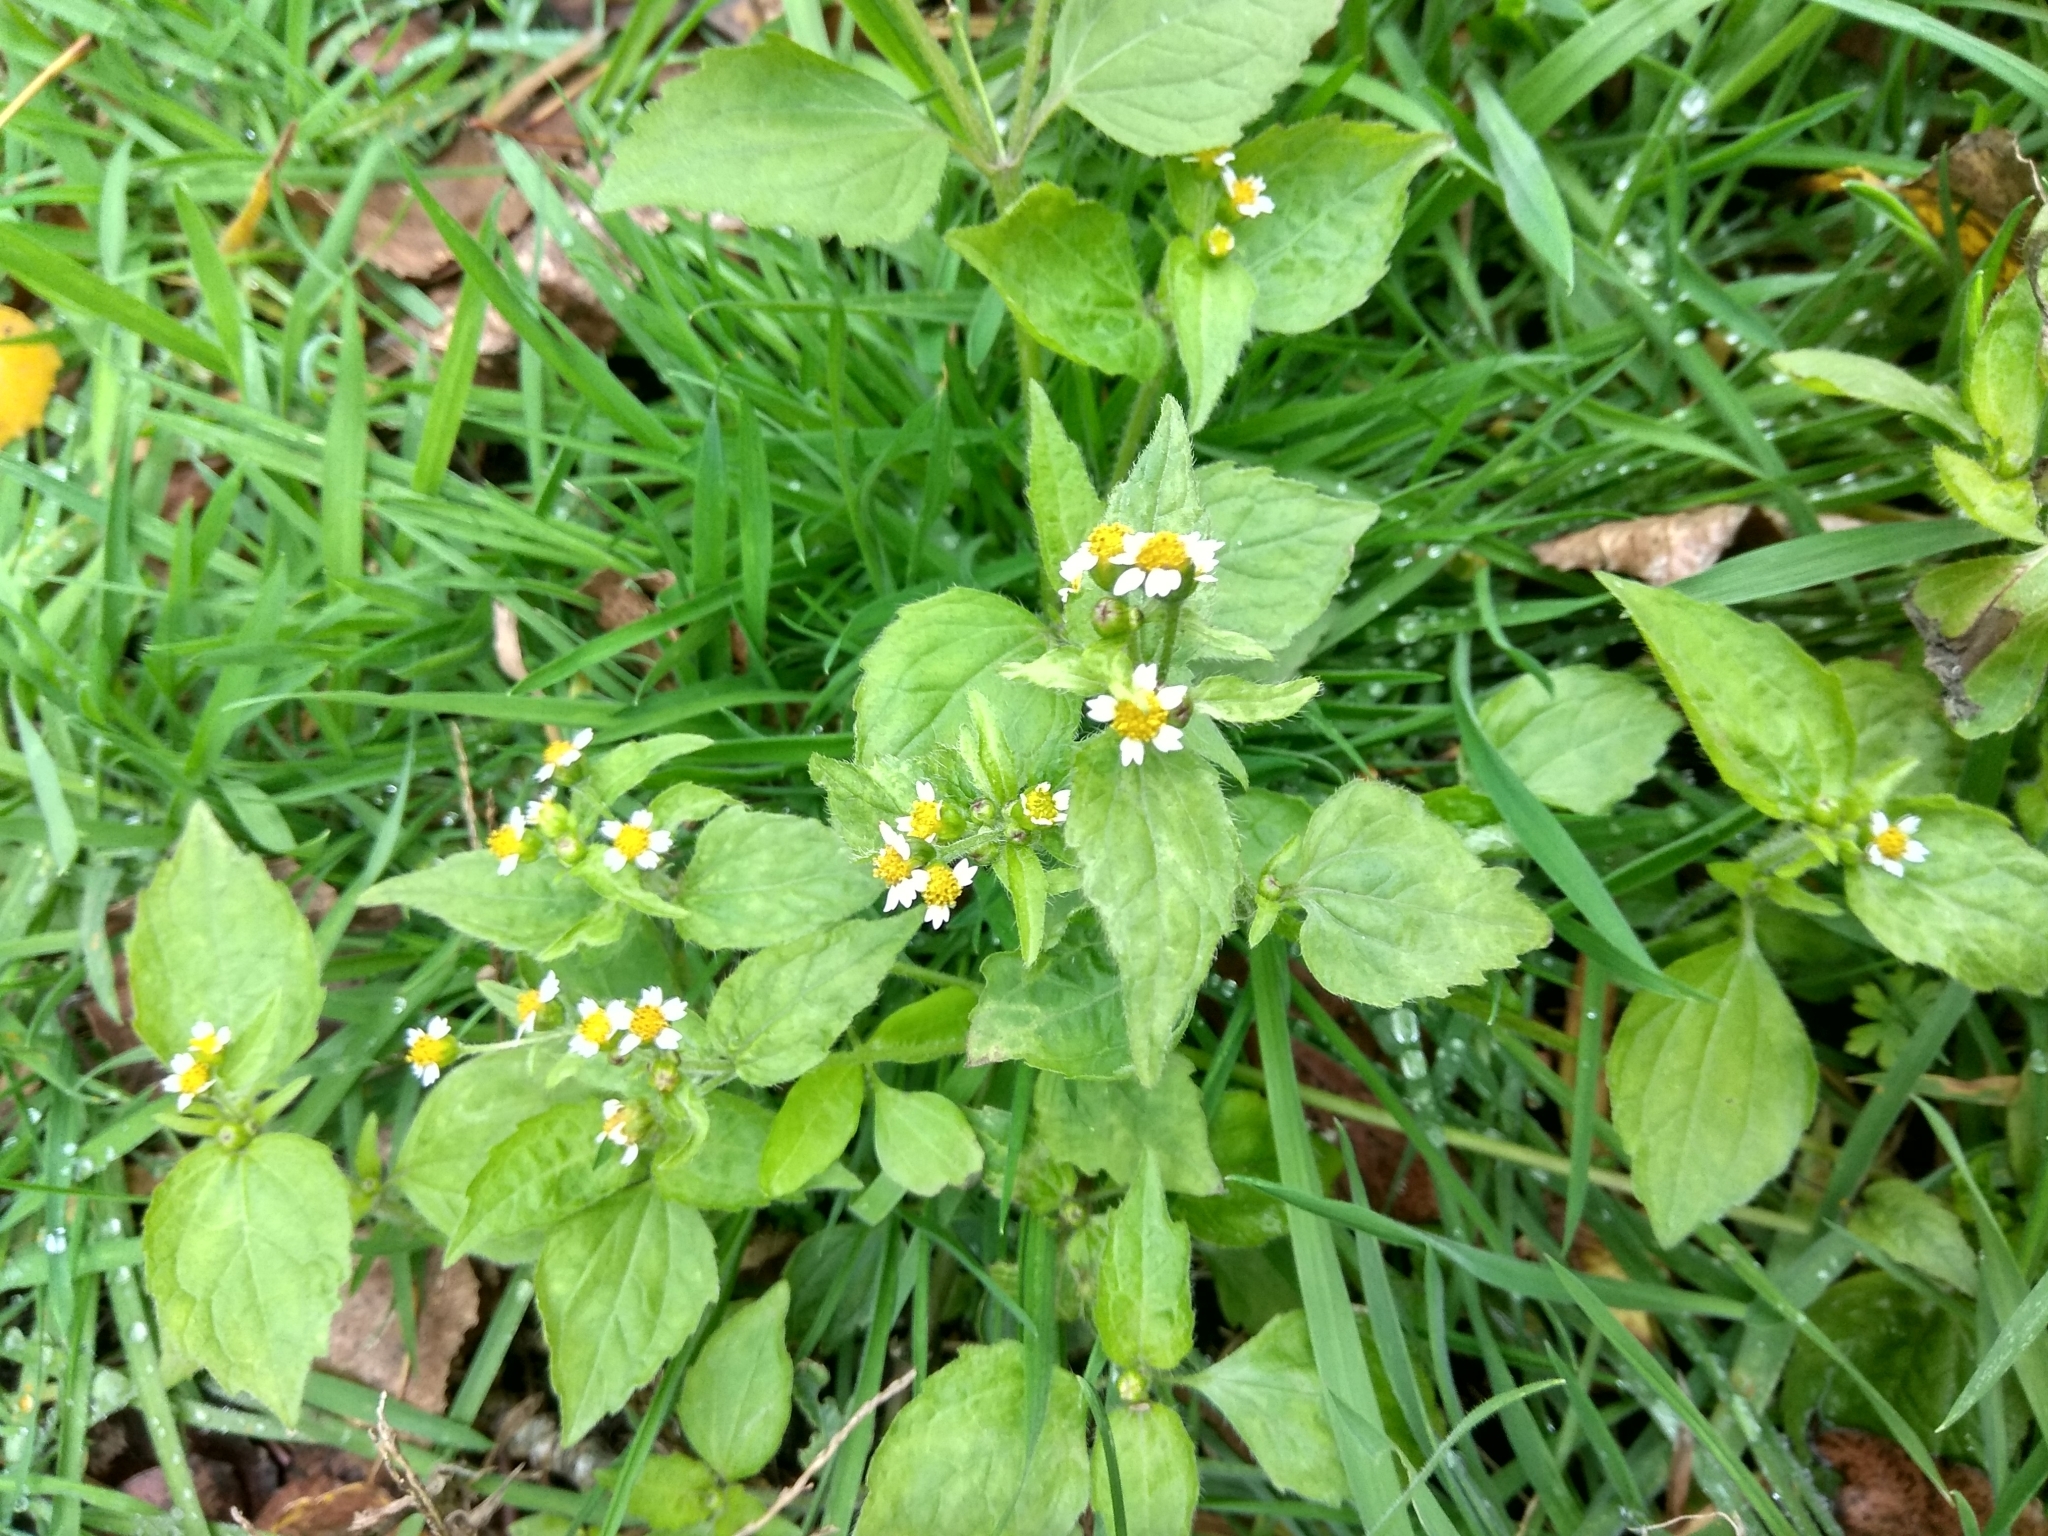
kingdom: Plantae
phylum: Tracheophyta
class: Magnoliopsida
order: Asterales
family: Asteraceae
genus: Galinsoga
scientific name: Galinsoga quadriradiata
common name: Shaggy soldier
